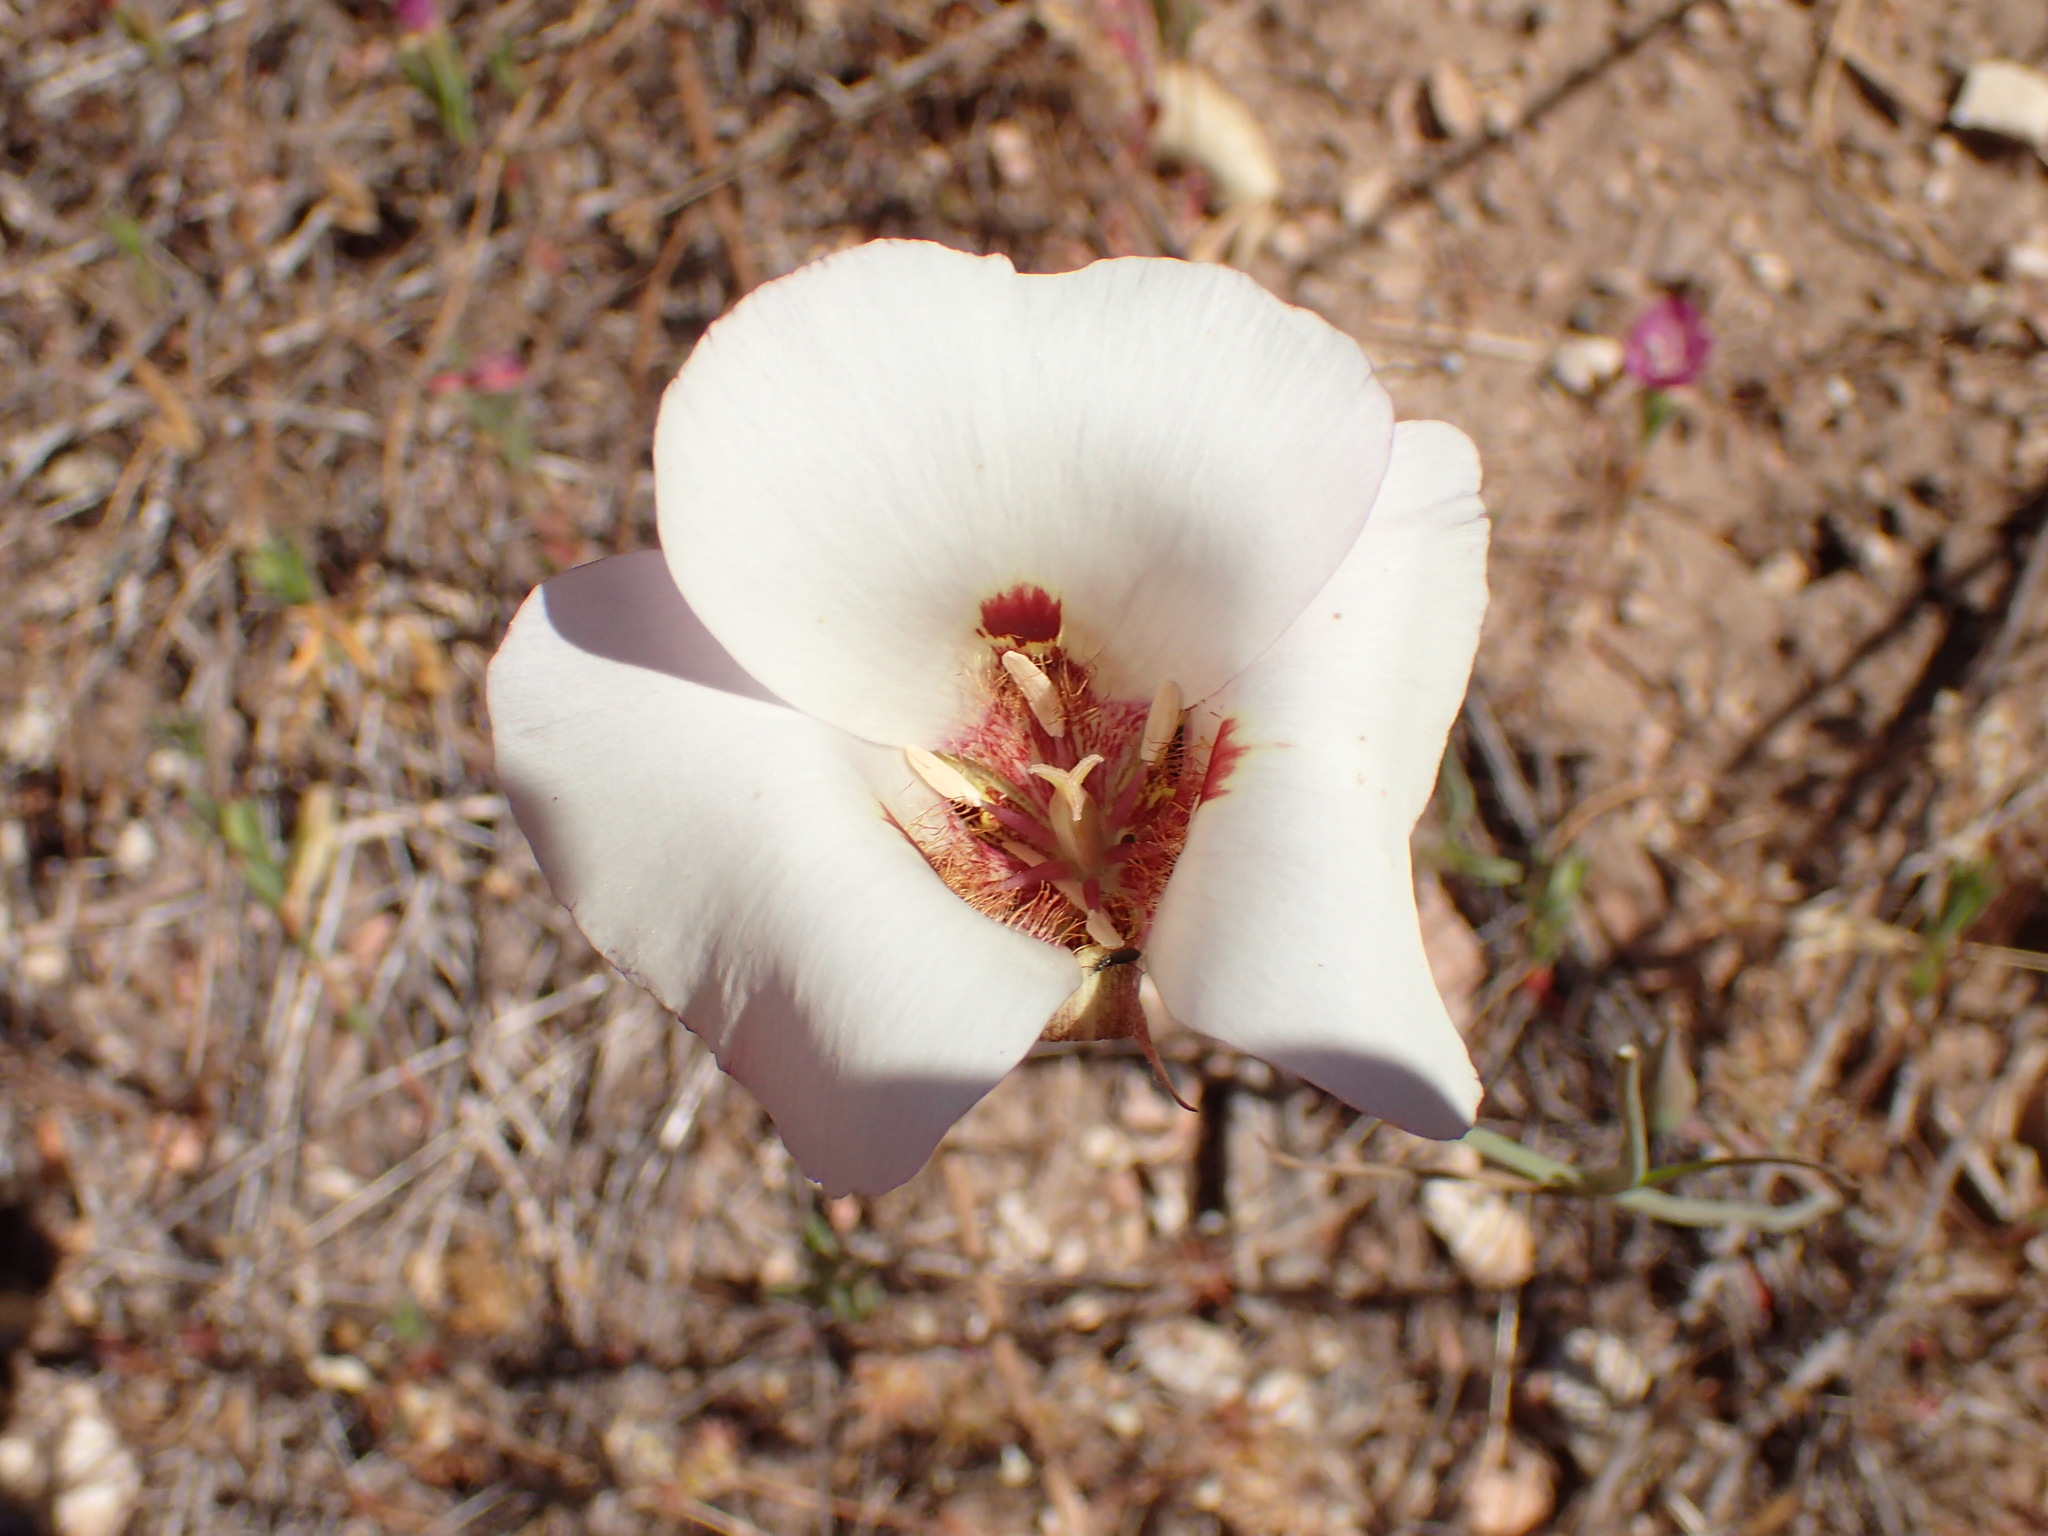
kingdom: Plantae
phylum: Tracheophyta
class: Liliopsida
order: Liliales
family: Liliaceae
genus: Calochortus
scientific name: Calochortus venustus
